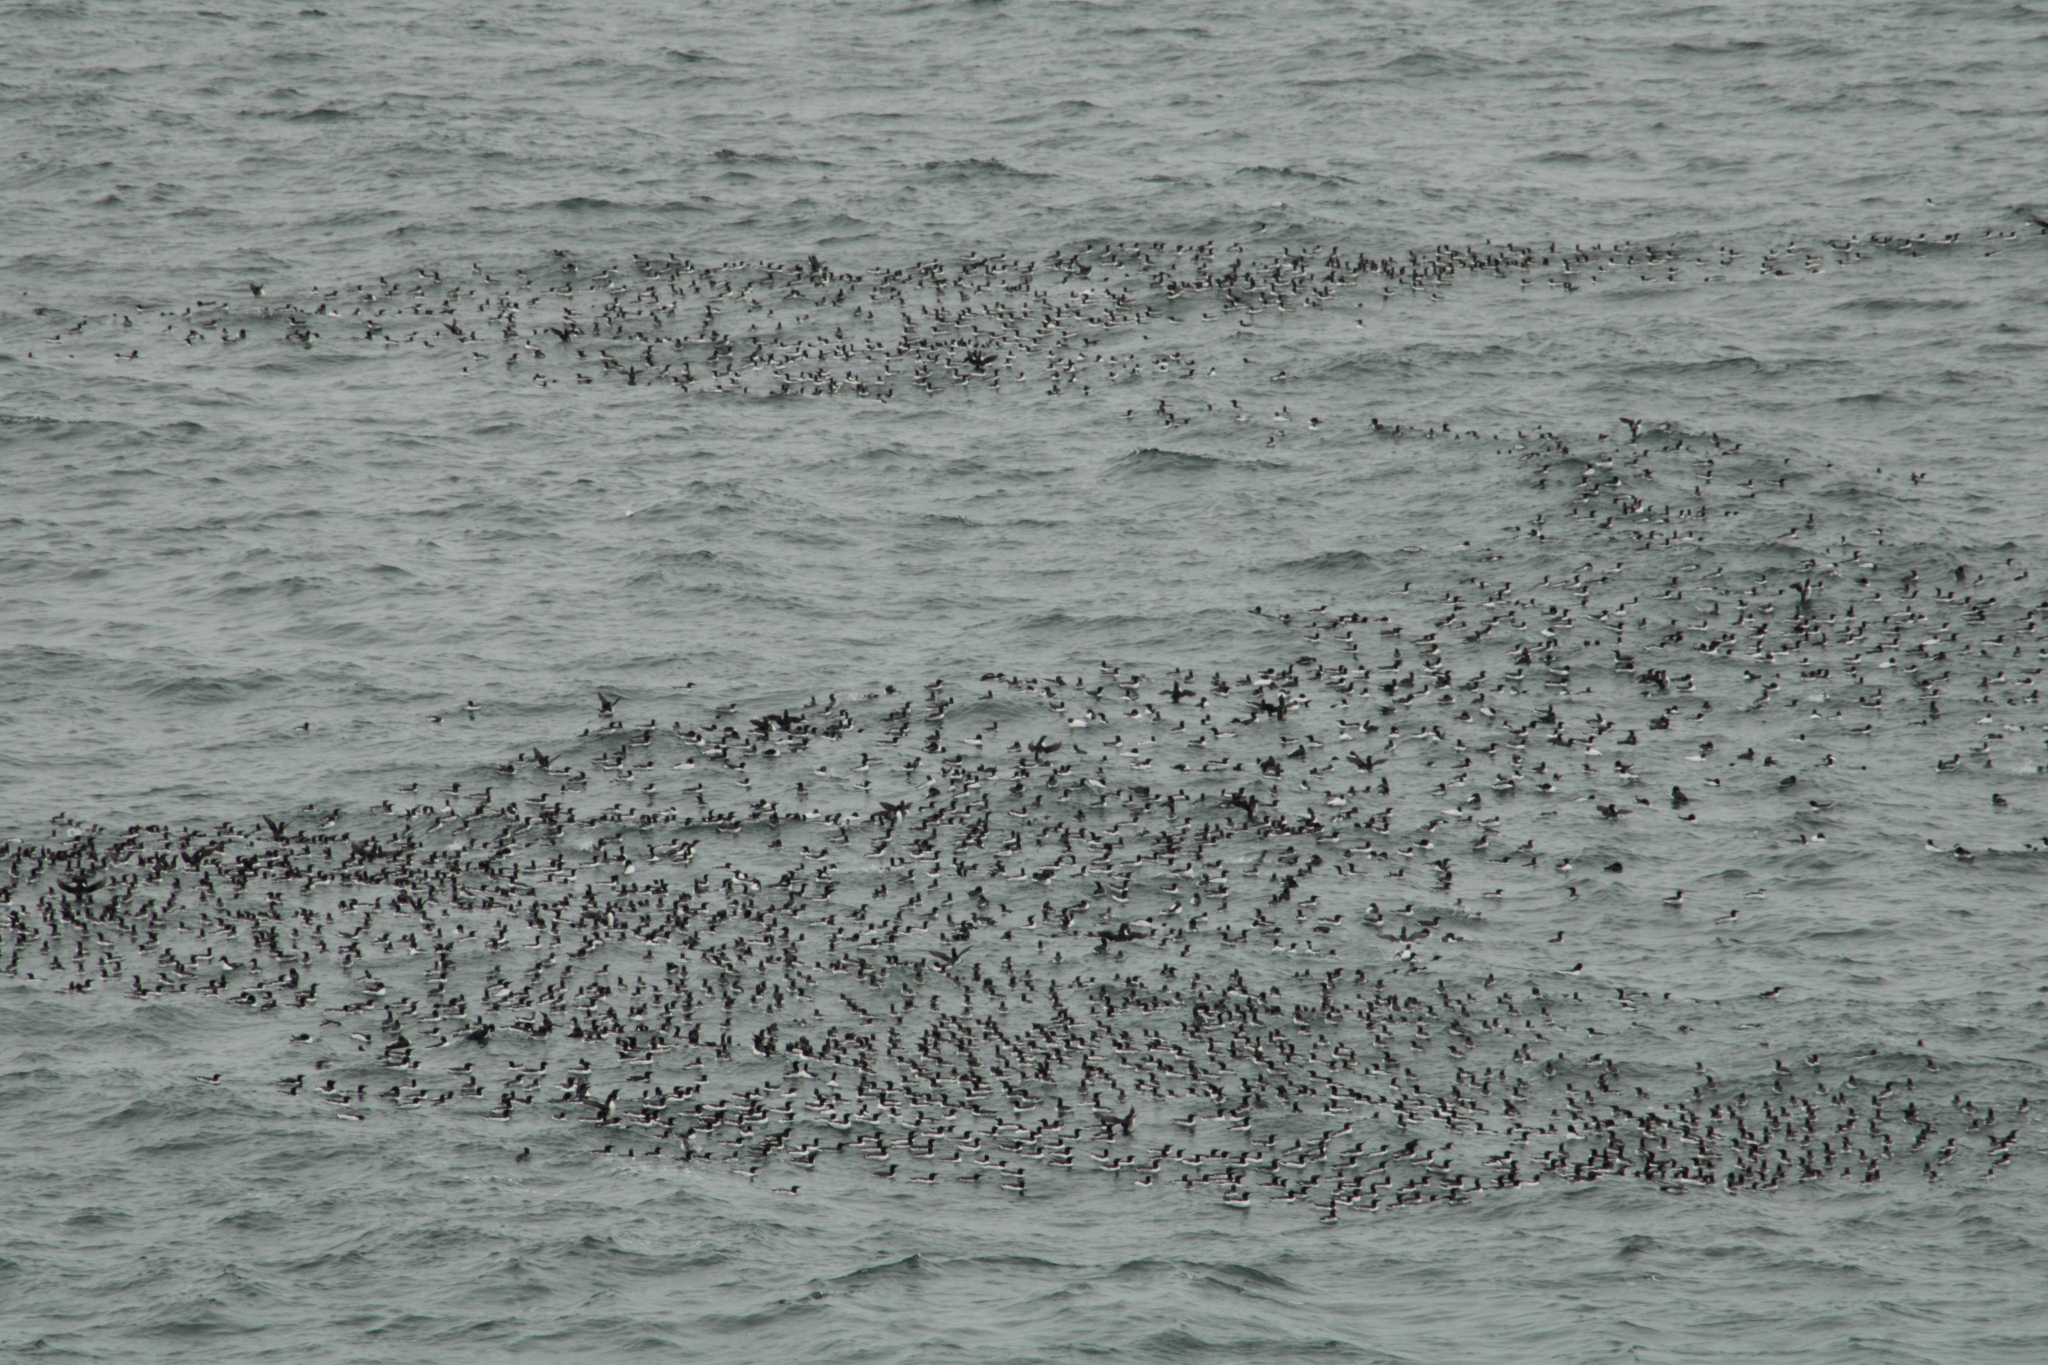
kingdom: Animalia
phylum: Chordata
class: Aves
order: Charadriiformes
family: Alcidae
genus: Uria
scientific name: Uria aalge
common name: Common murre
